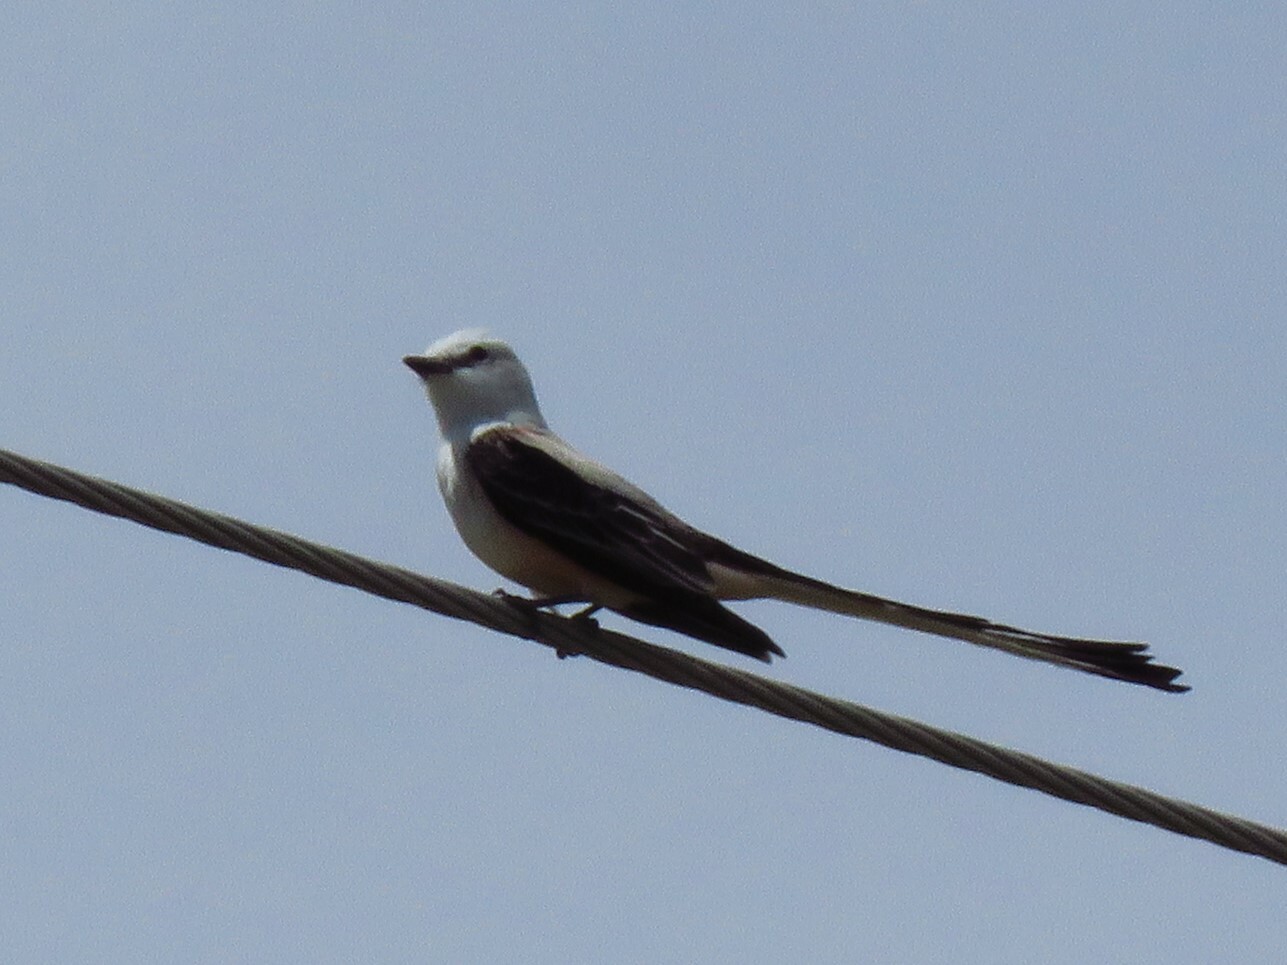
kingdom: Animalia
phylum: Chordata
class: Aves
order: Passeriformes
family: Tyrannidae
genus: Tyrannus
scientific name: Tyrannus forficatus
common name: Scissor-tailed flycatcher
